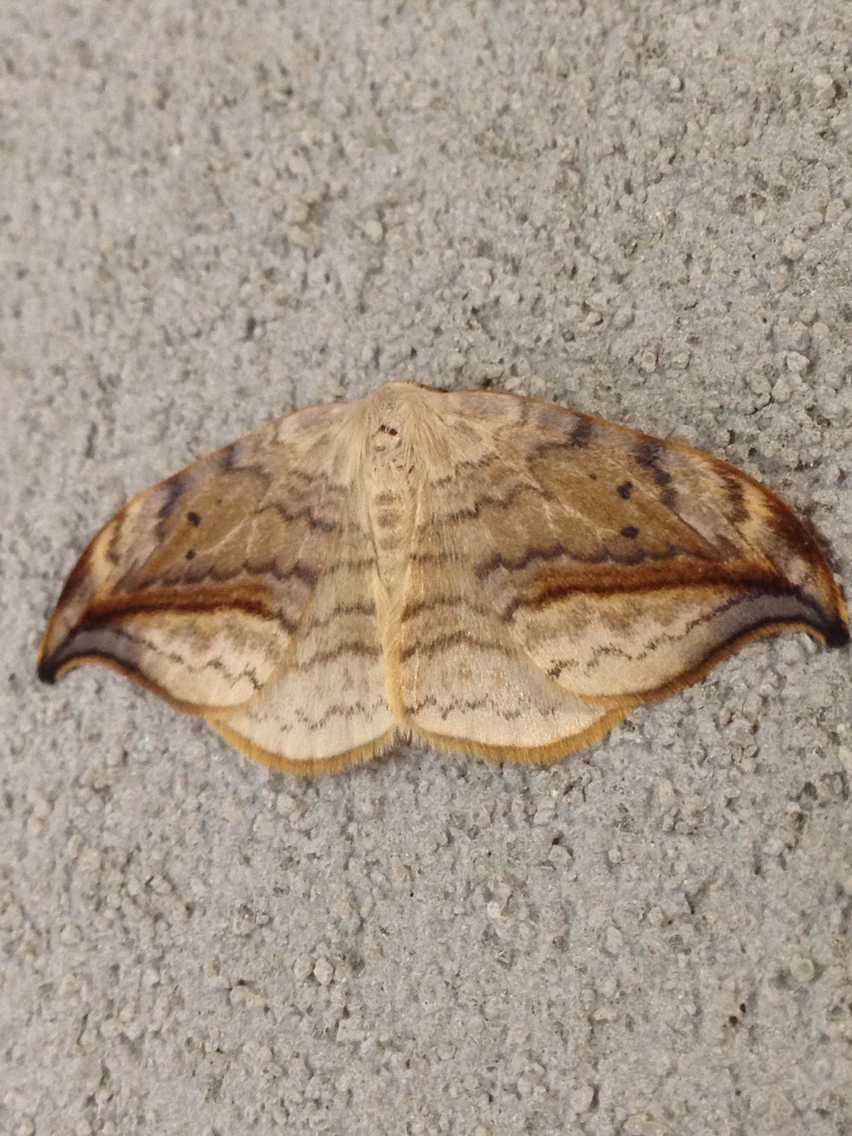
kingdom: Animalia
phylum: Arthropoda
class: Insecta
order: Lepidoptera
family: Drepanidae
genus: Drepana
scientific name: Drepana arcuata
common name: Arched hooktip moth
